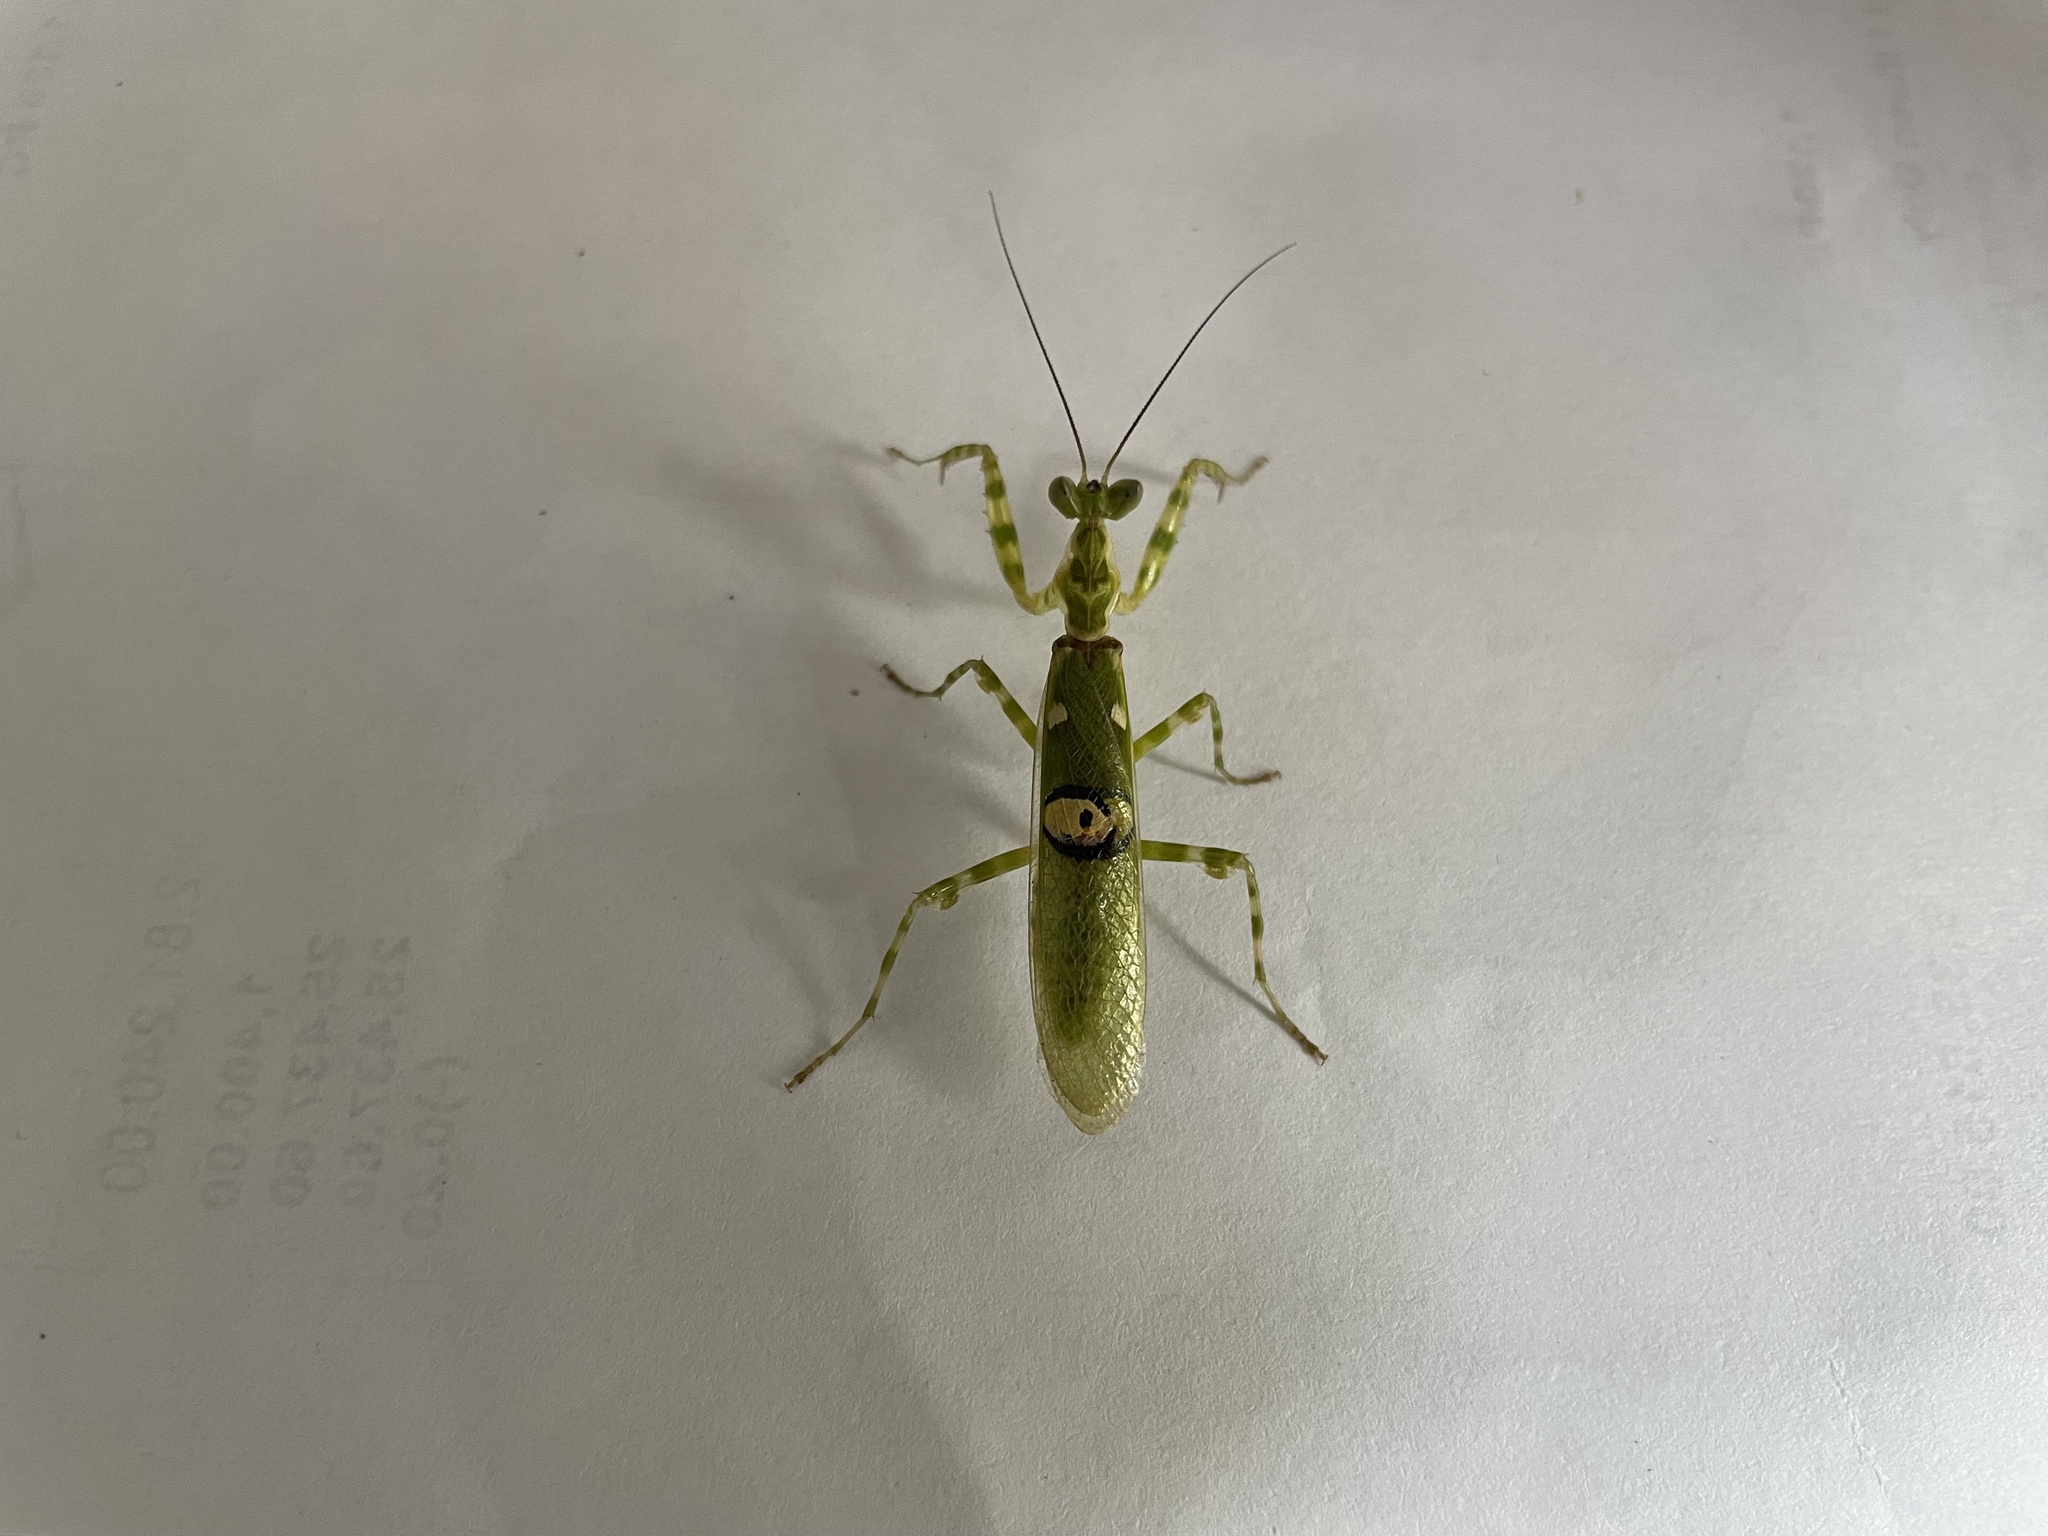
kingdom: Animalia
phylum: Arthropoda
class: Insecta
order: Mantodea
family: Hymenopodidae
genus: Creobroter
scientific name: Creobroter pictipennis
